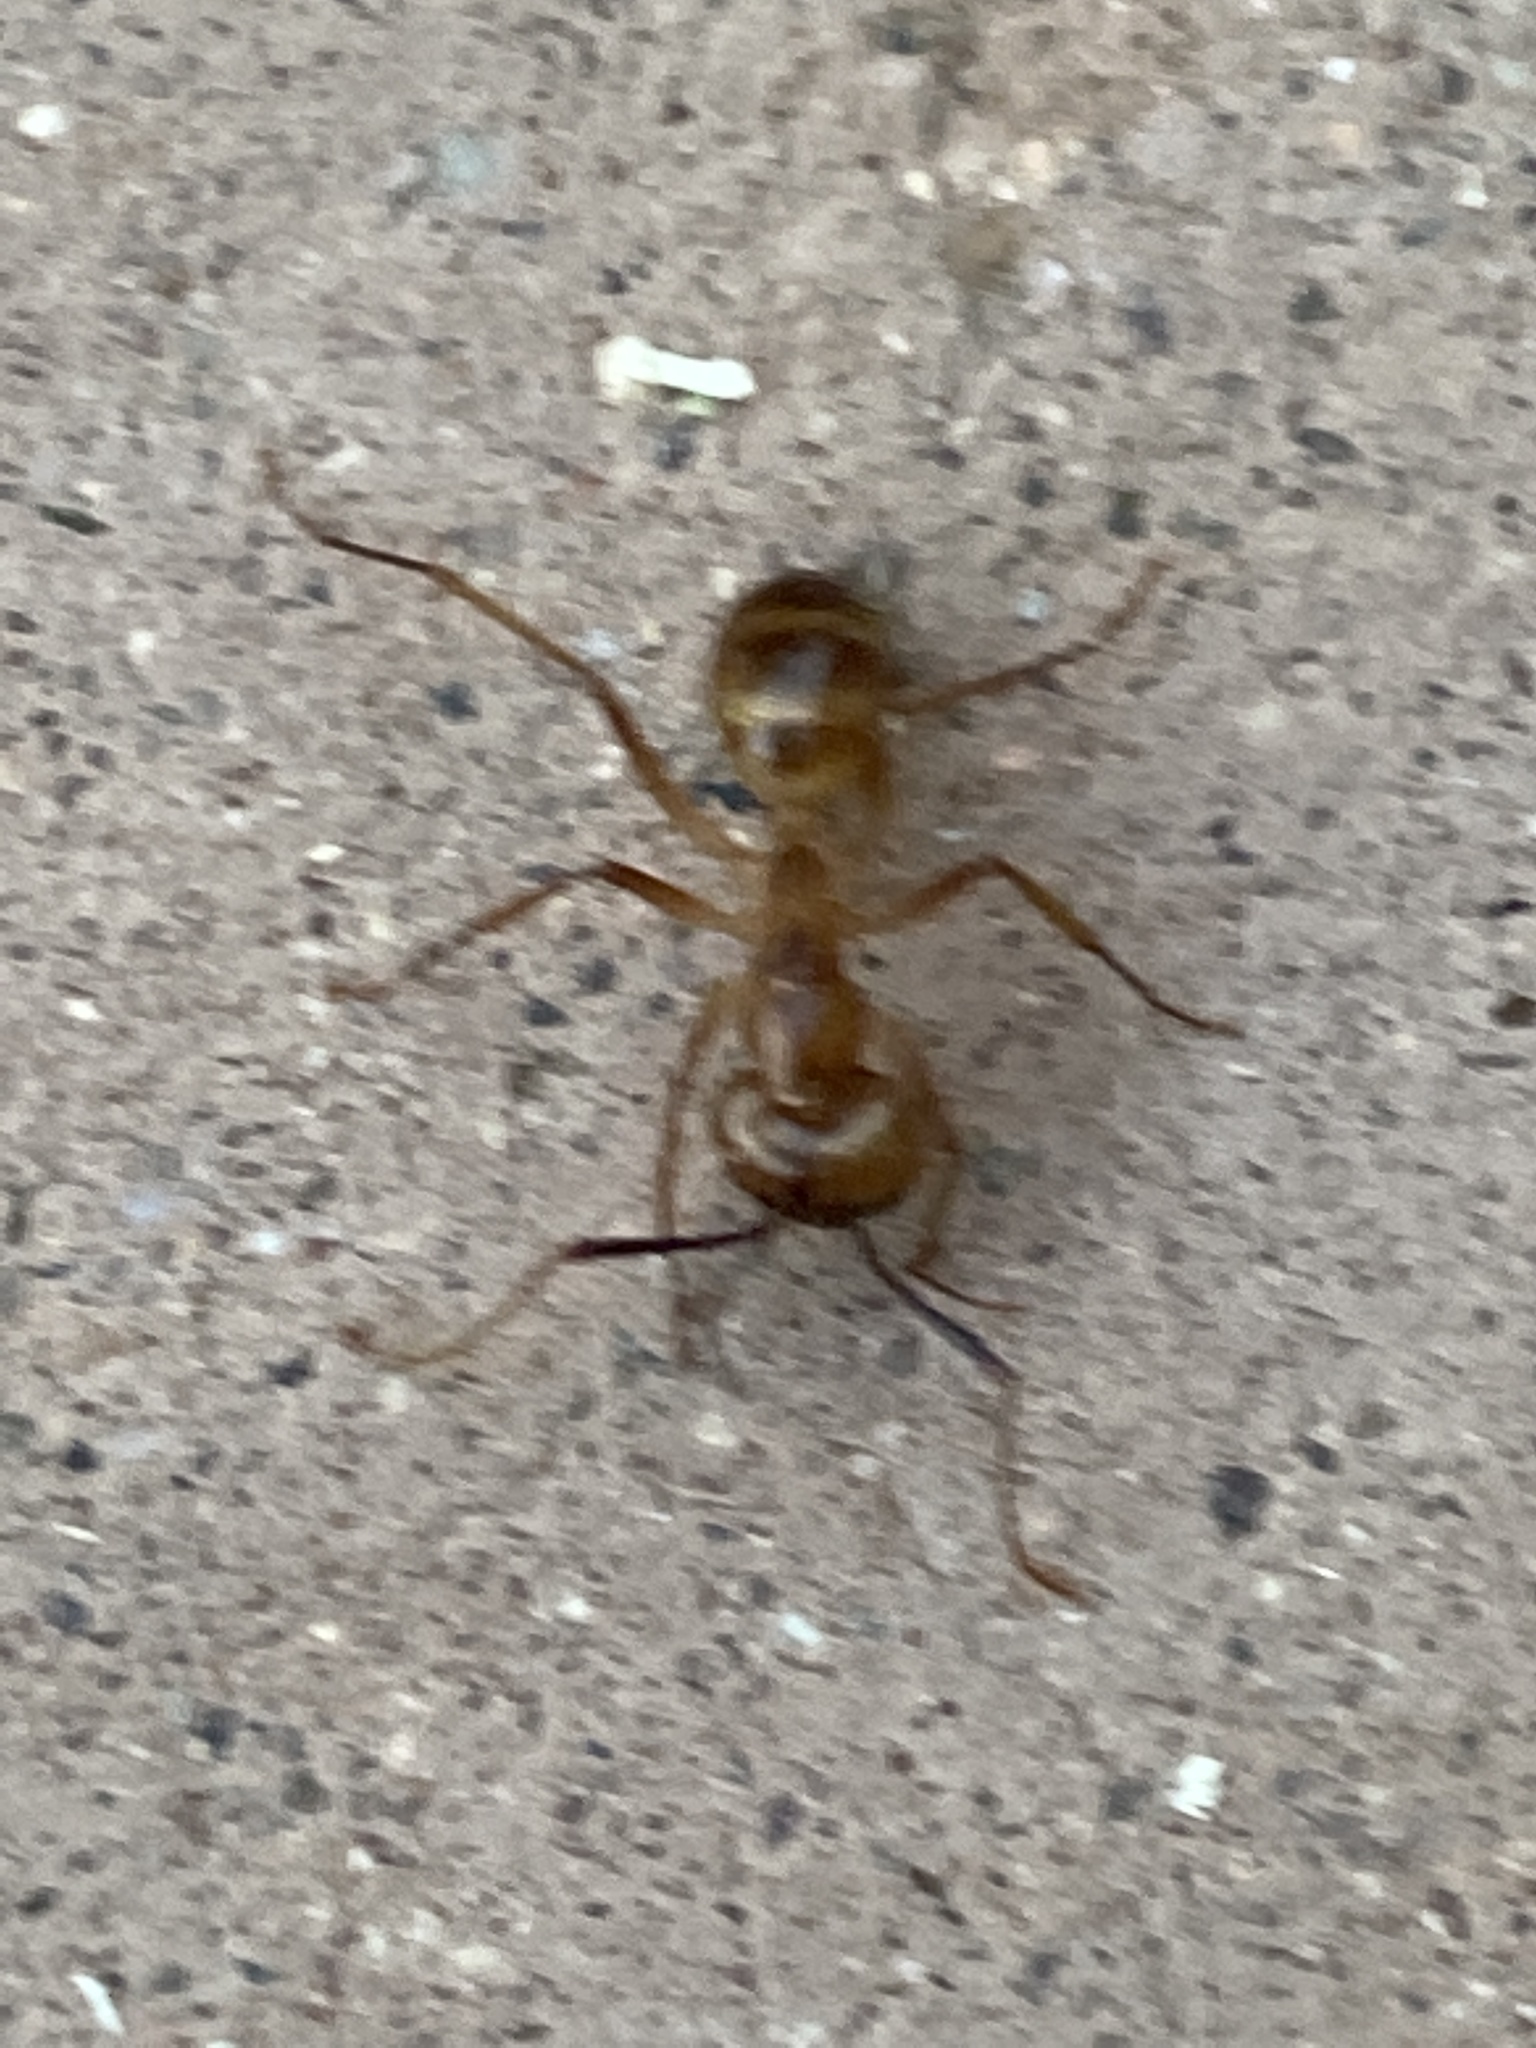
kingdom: Animalia
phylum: Arthropoda
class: Insecta
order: Hymenoptera
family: Formicidae
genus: Camponotus
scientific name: Camponotus festinatus
